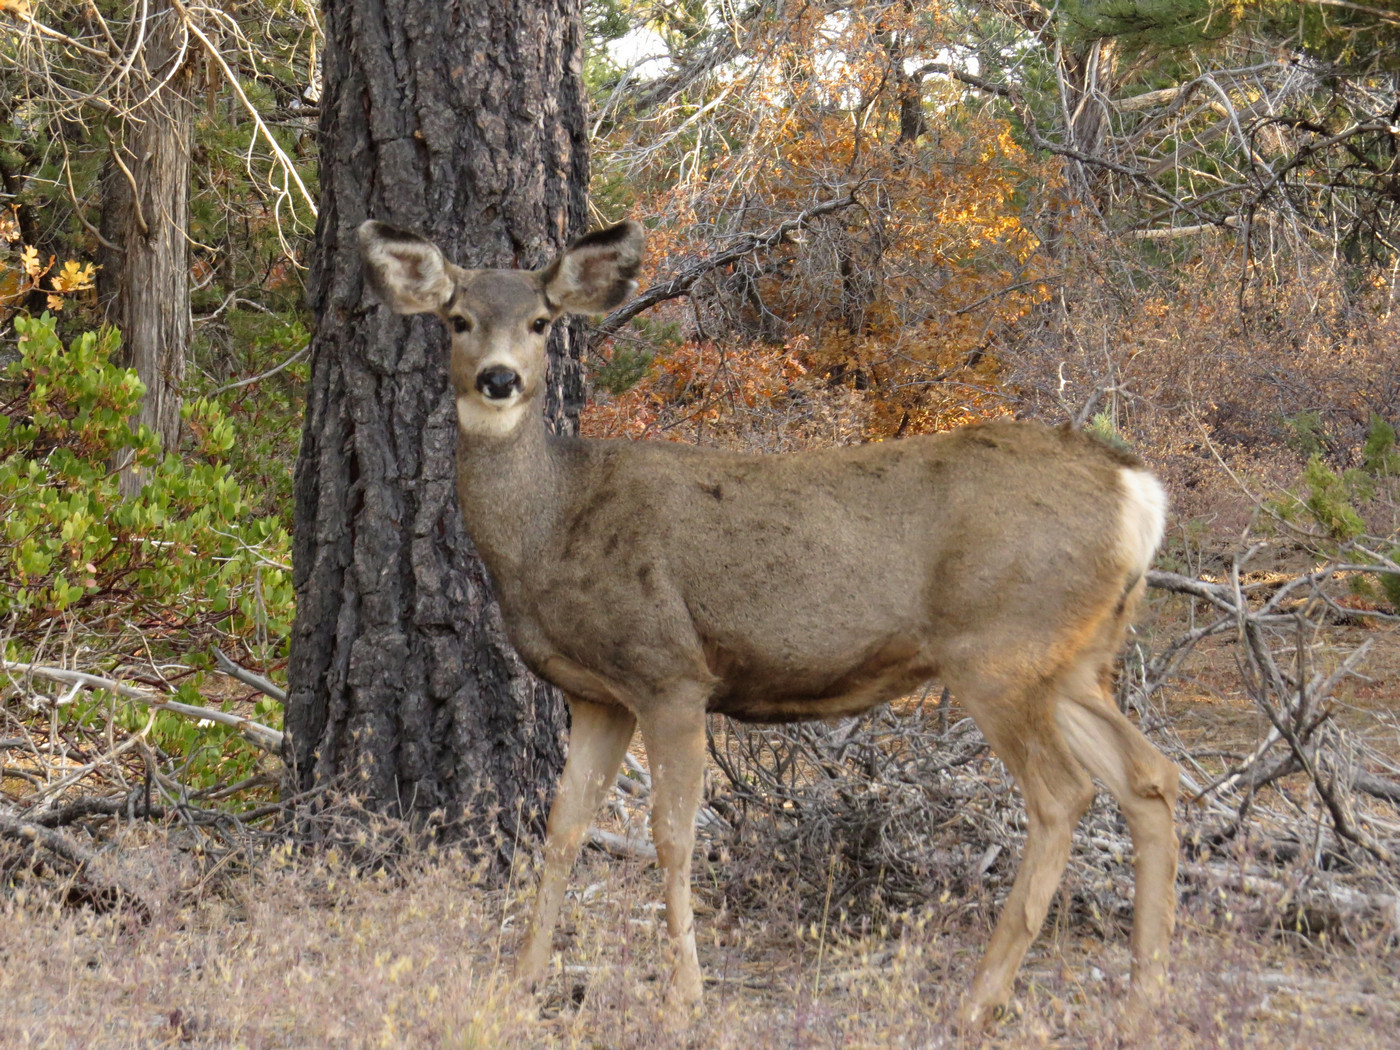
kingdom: Animalia
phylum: Chordata
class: Mammalia
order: Artiodactyla
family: Cervidae
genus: Odocoileus
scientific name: Odocoileus hemionus
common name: Mule deer
